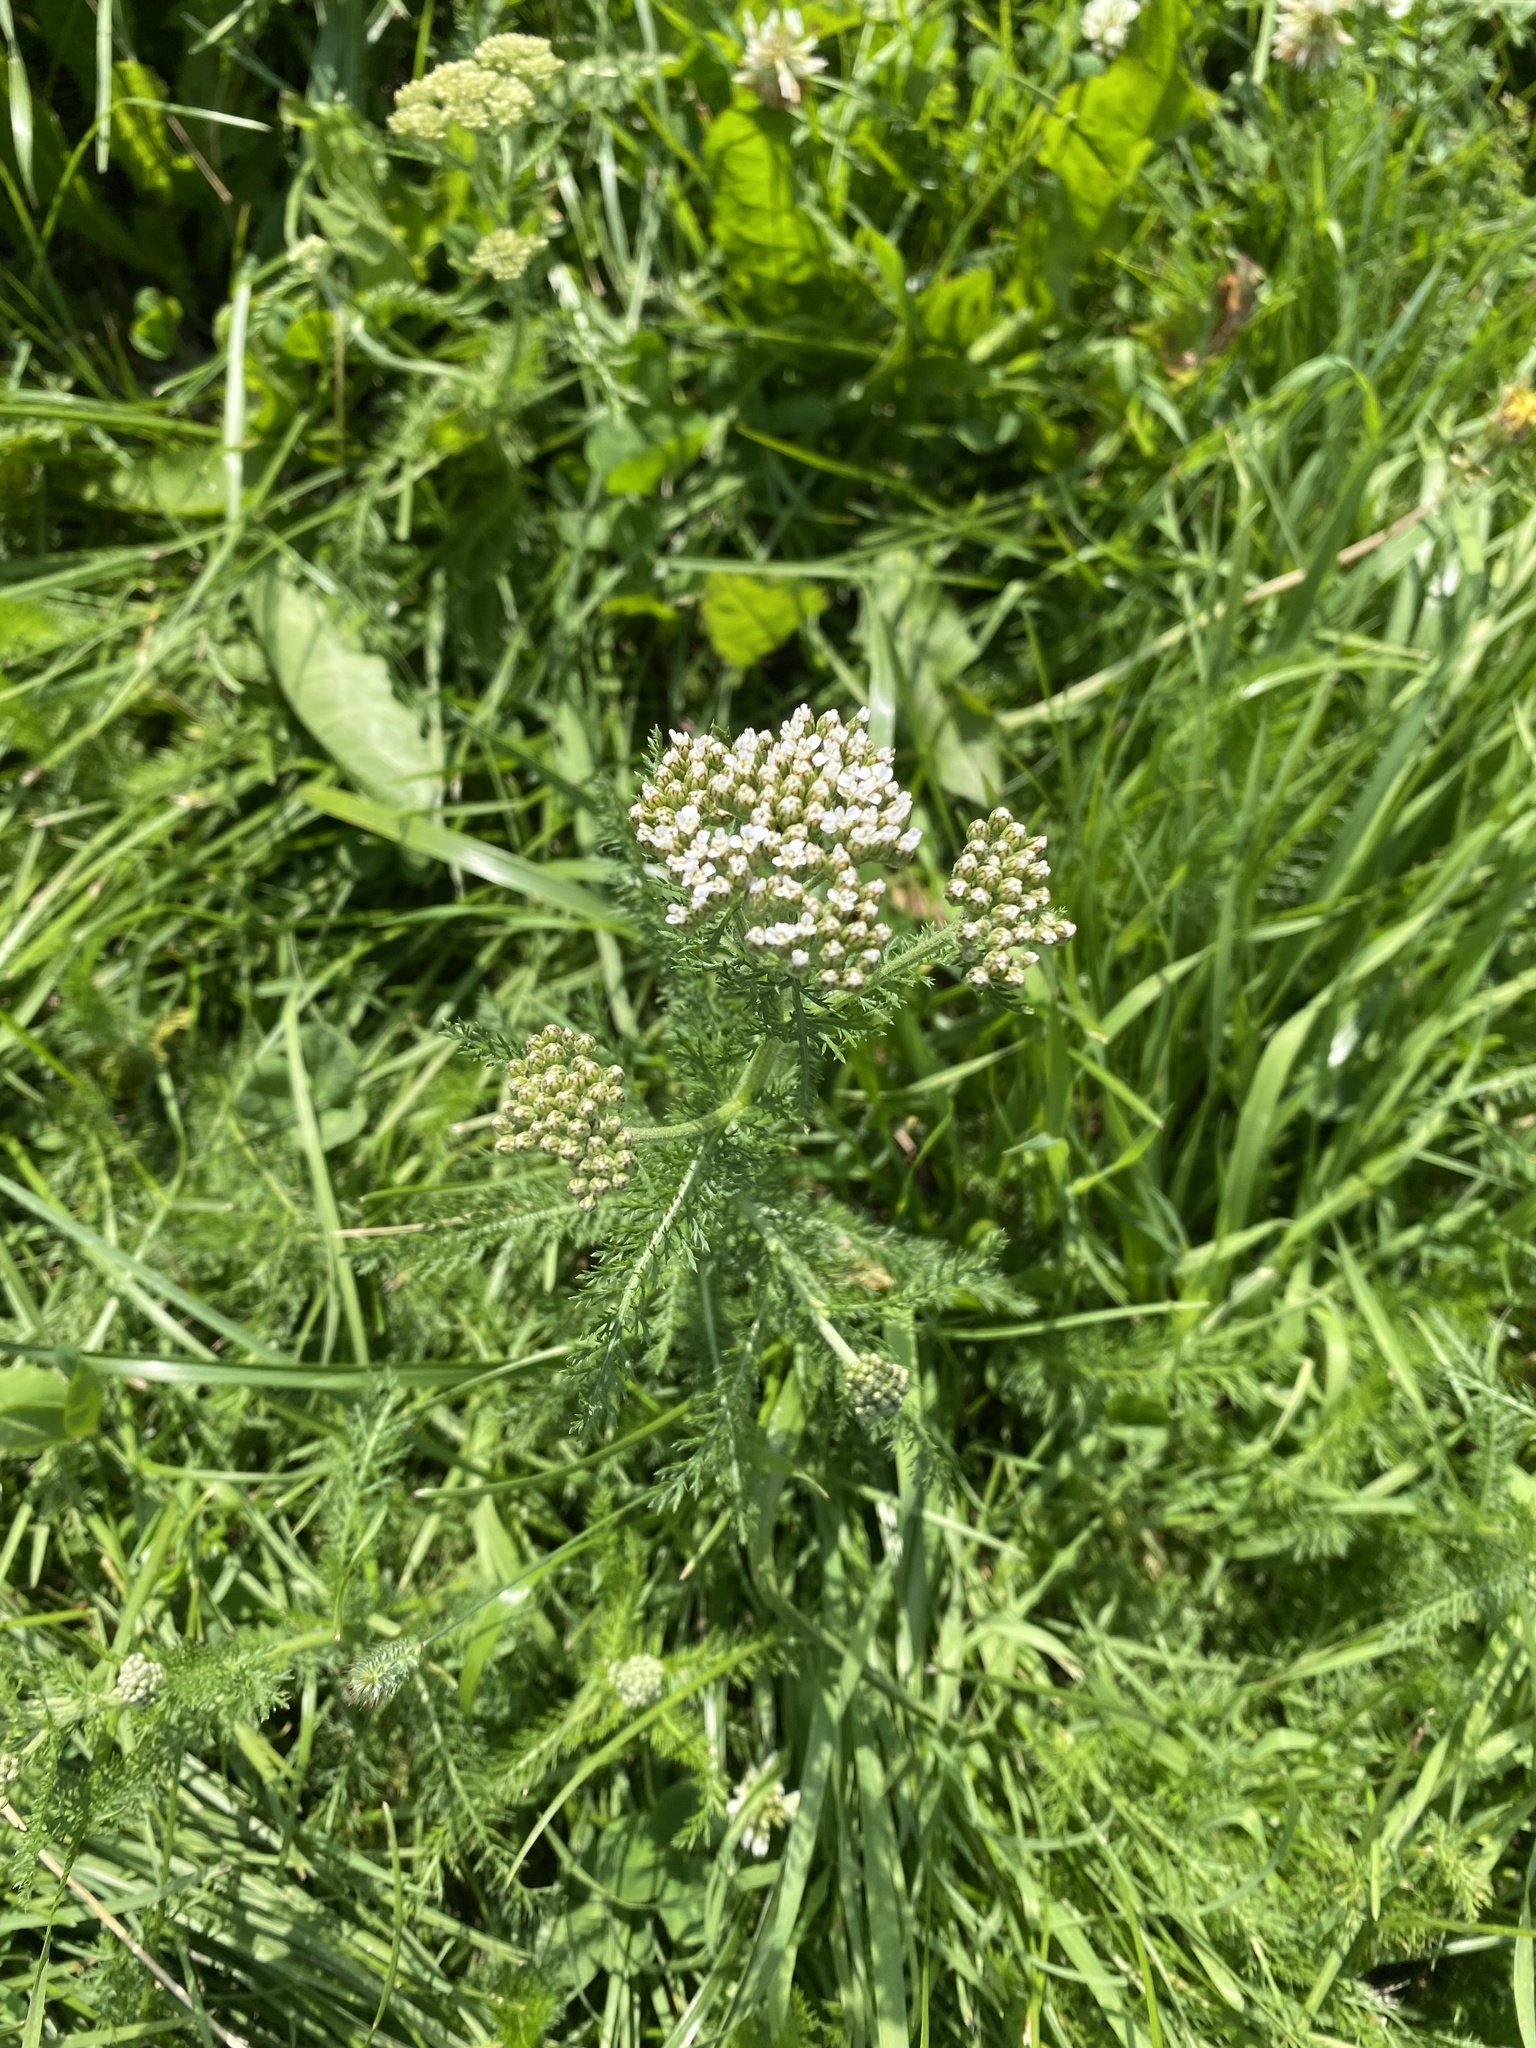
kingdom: Plantae
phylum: Tracheophyta
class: Magnoliopsida
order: Asterales
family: Asteraceae
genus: Achillea
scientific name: Achillea millefolium
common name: Yarrow
